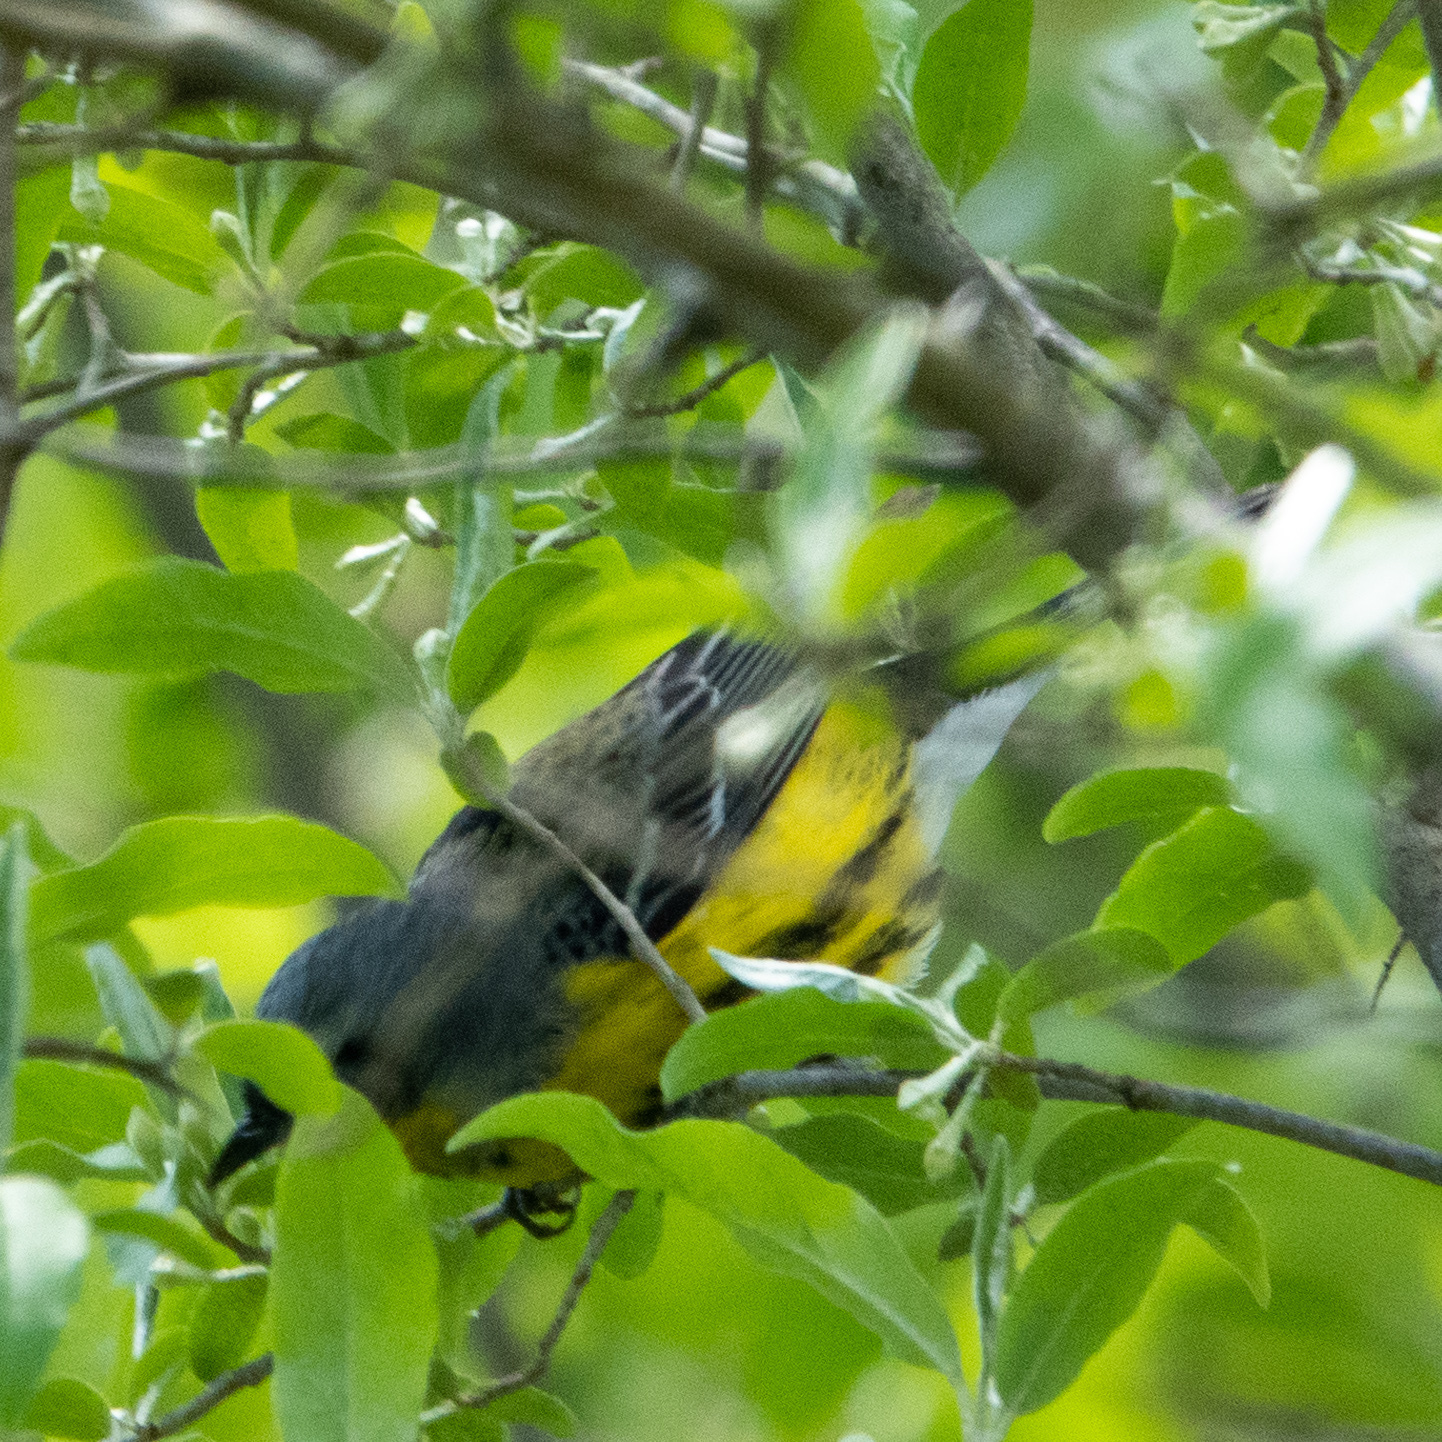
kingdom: Animalia
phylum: Chordata
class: Aves
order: Passeriformes
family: Parulidae
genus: Setophaga
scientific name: Setophaga magnolia
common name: Magnolia warbler
